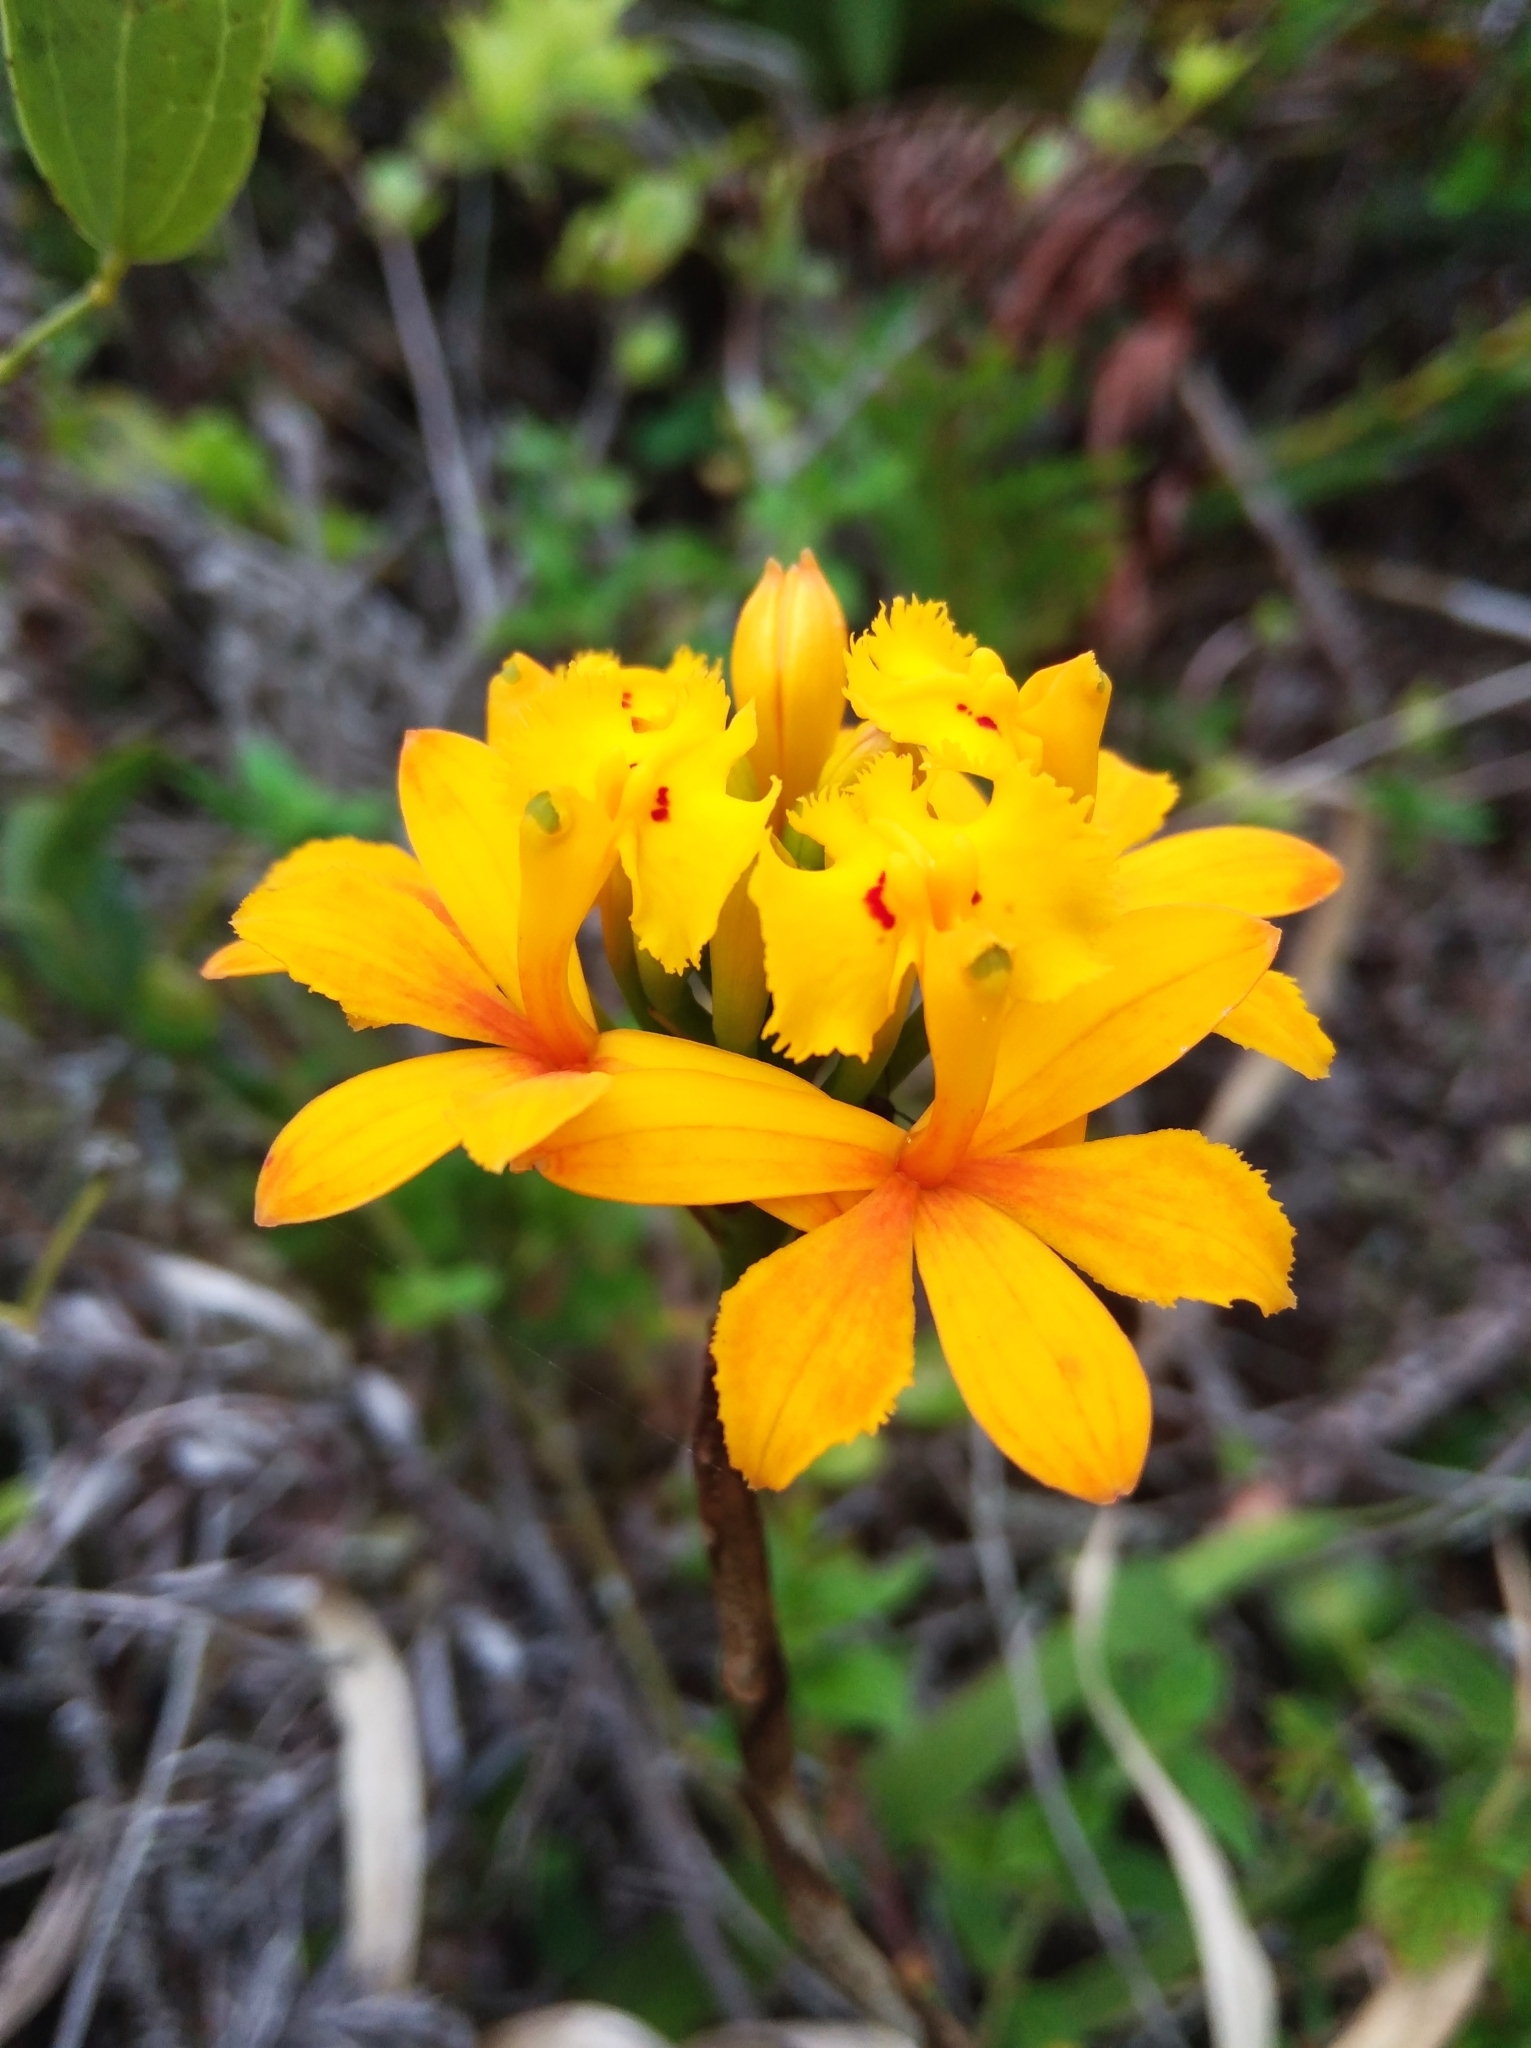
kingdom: Plantae
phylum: Tracheophyta
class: Liliopsida
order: Asparagales
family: Orchidaceae
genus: Epidendrum
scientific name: Epidendrum fulgens
